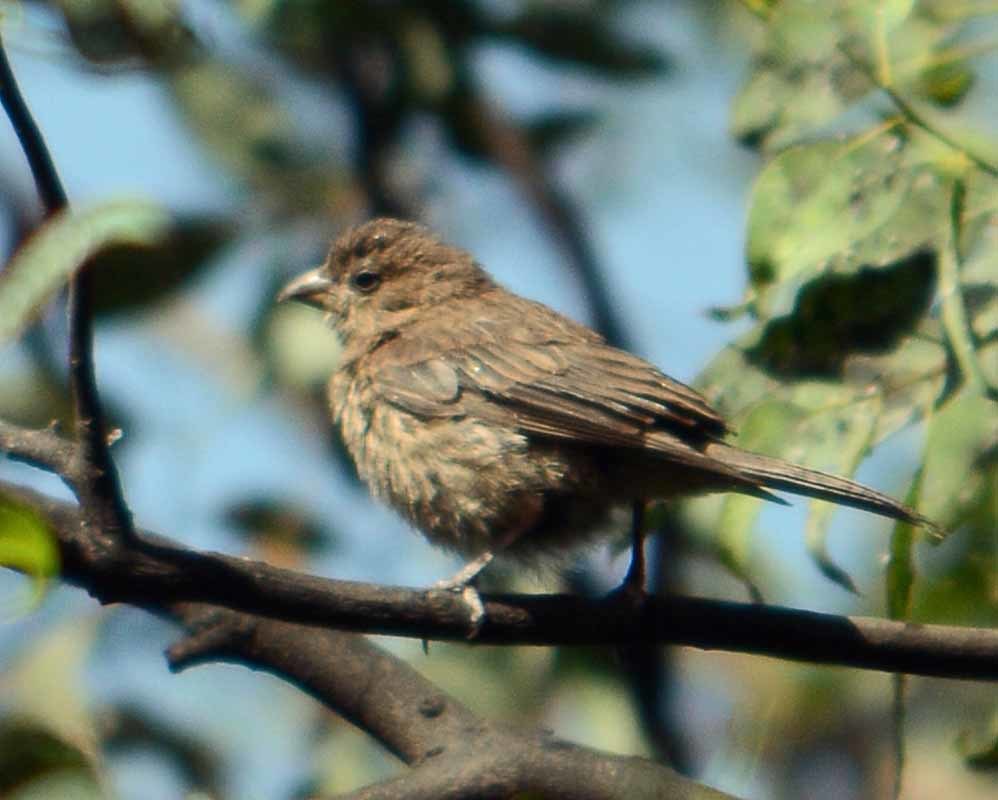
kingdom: Animalia
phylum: Chordata
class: Aves
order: Passeriformes
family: Fringillidae
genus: Haemorhous
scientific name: Haemorhous mexicanus
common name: House finch
